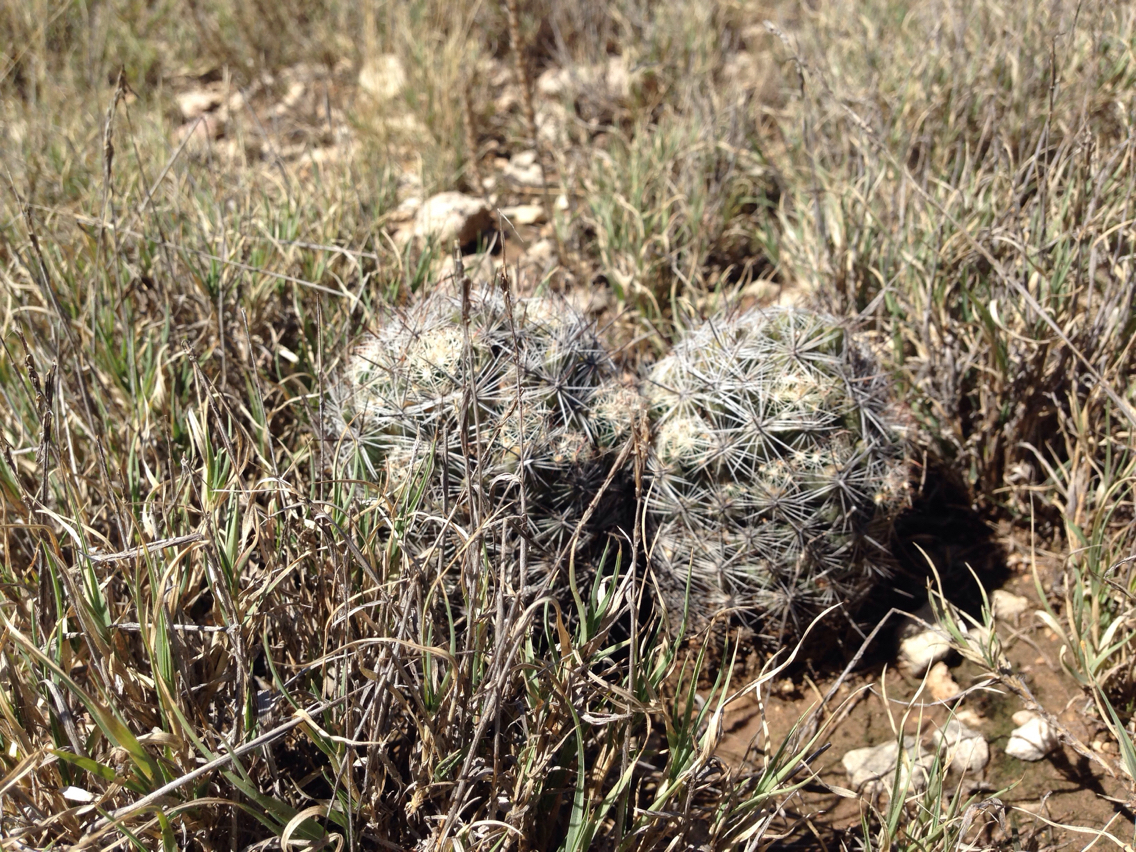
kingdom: Plantae
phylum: Tracheophyta
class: Magnoliopsida
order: Caryophyllales
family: Cactaceae
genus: Pelecyphora
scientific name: Pelecyphora vivipara
